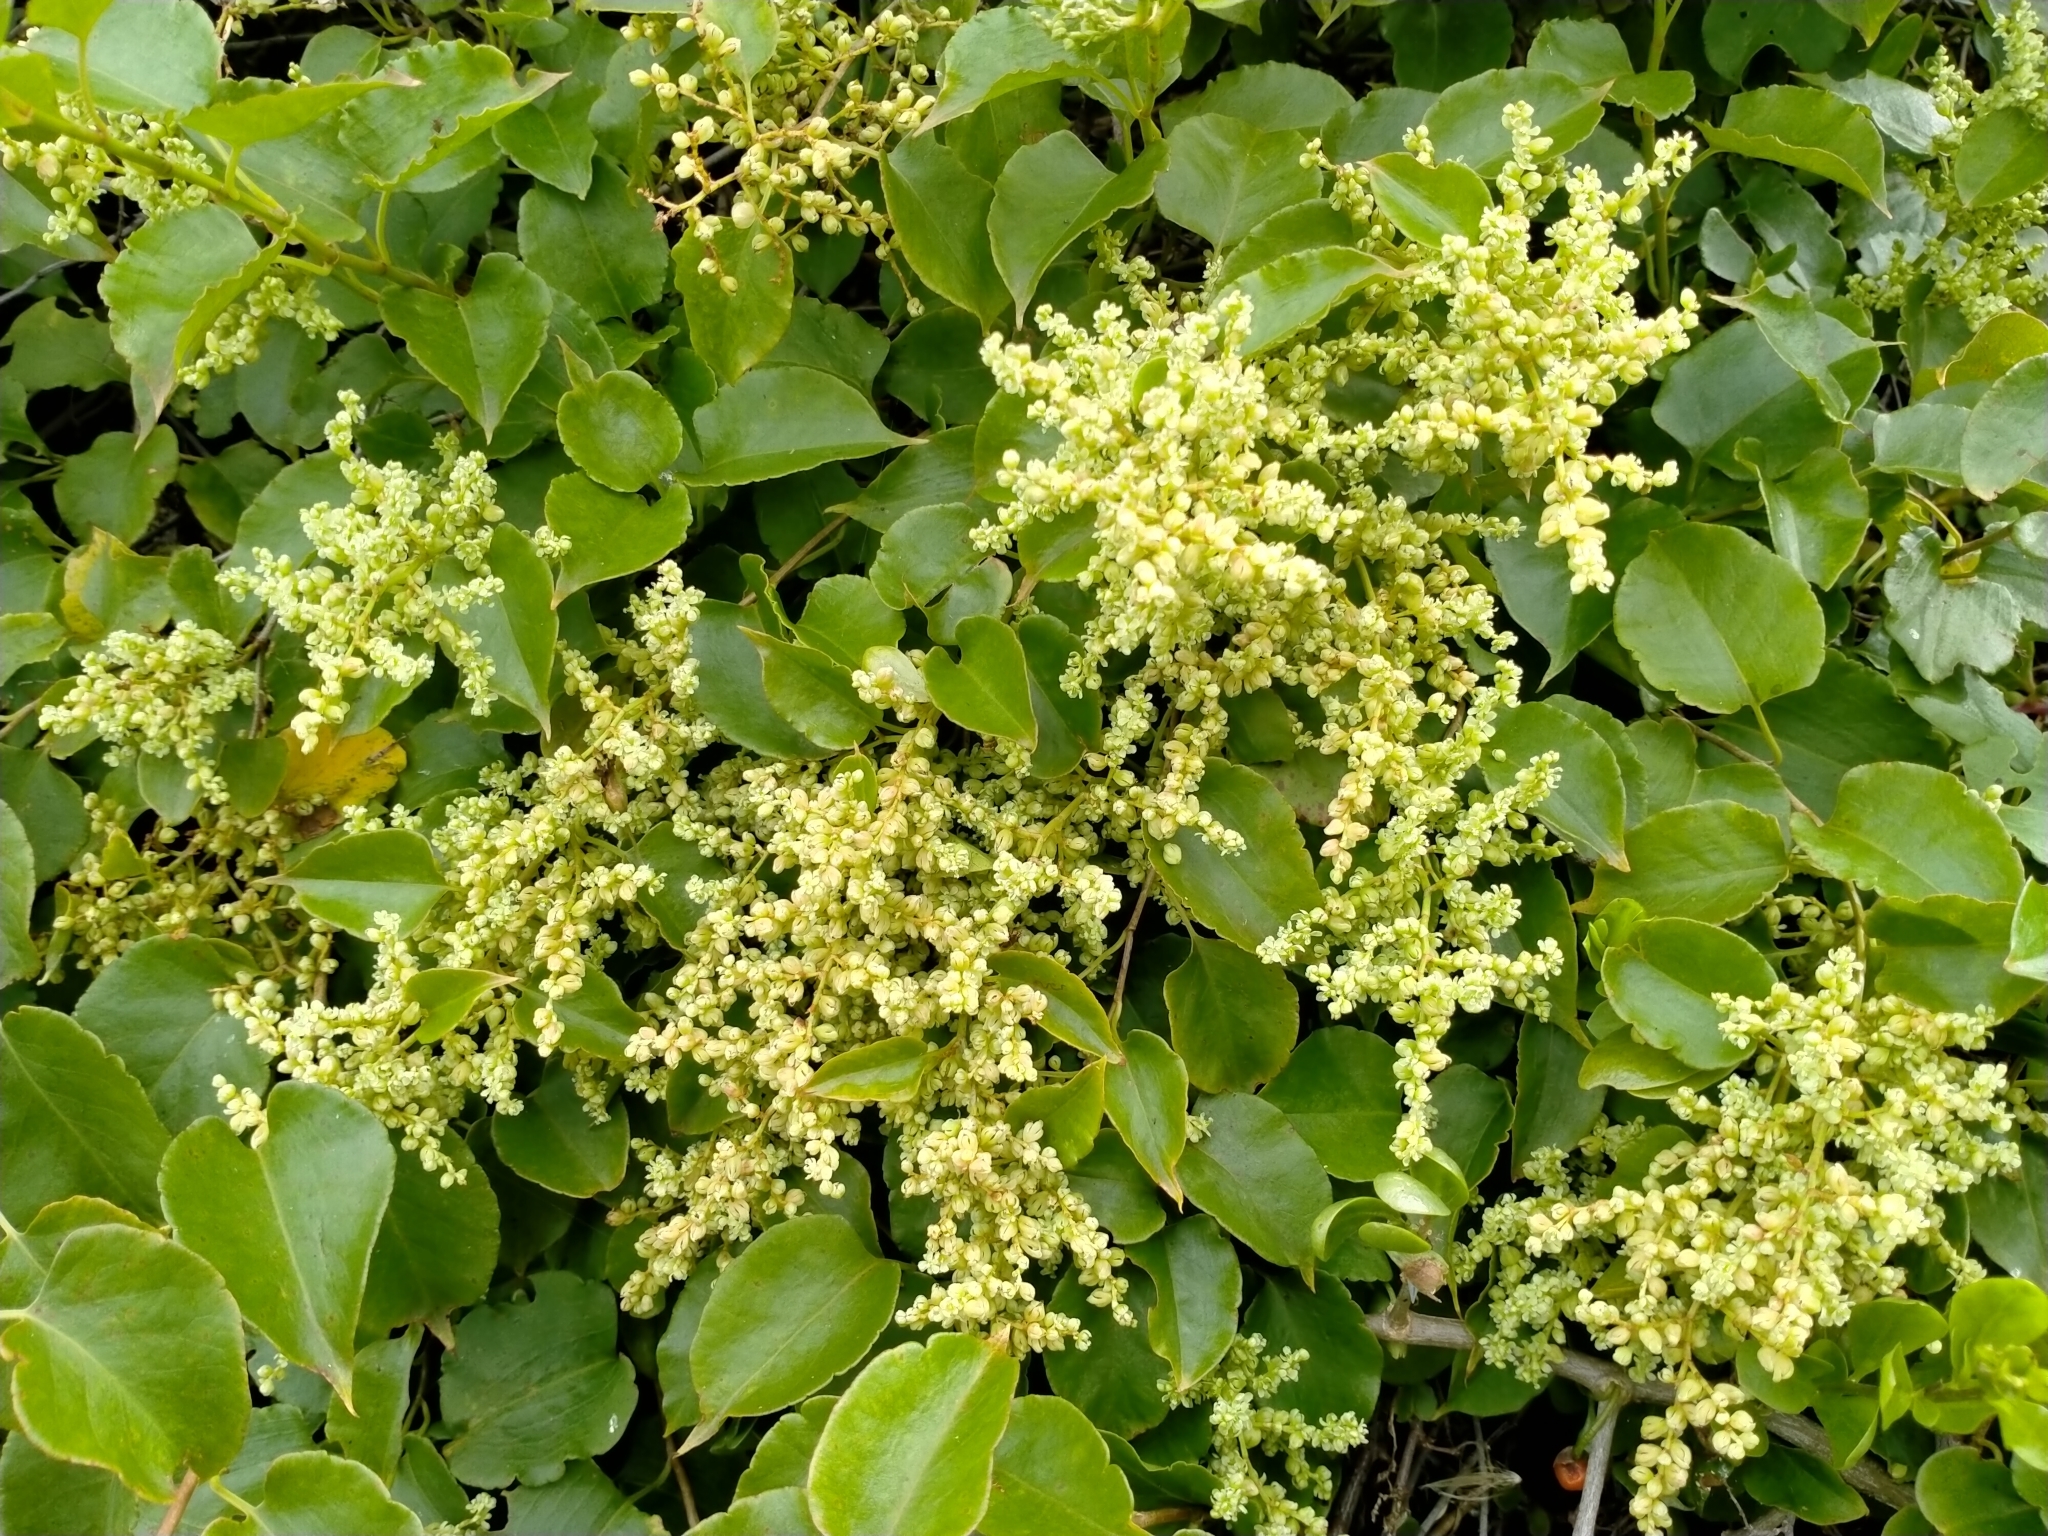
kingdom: Plantae
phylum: Tracheophyta
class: Magnoliopsida
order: Caryophyllales
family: Polygonaceae
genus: Muehlenbeckia
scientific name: Muehlenbeckia australis
